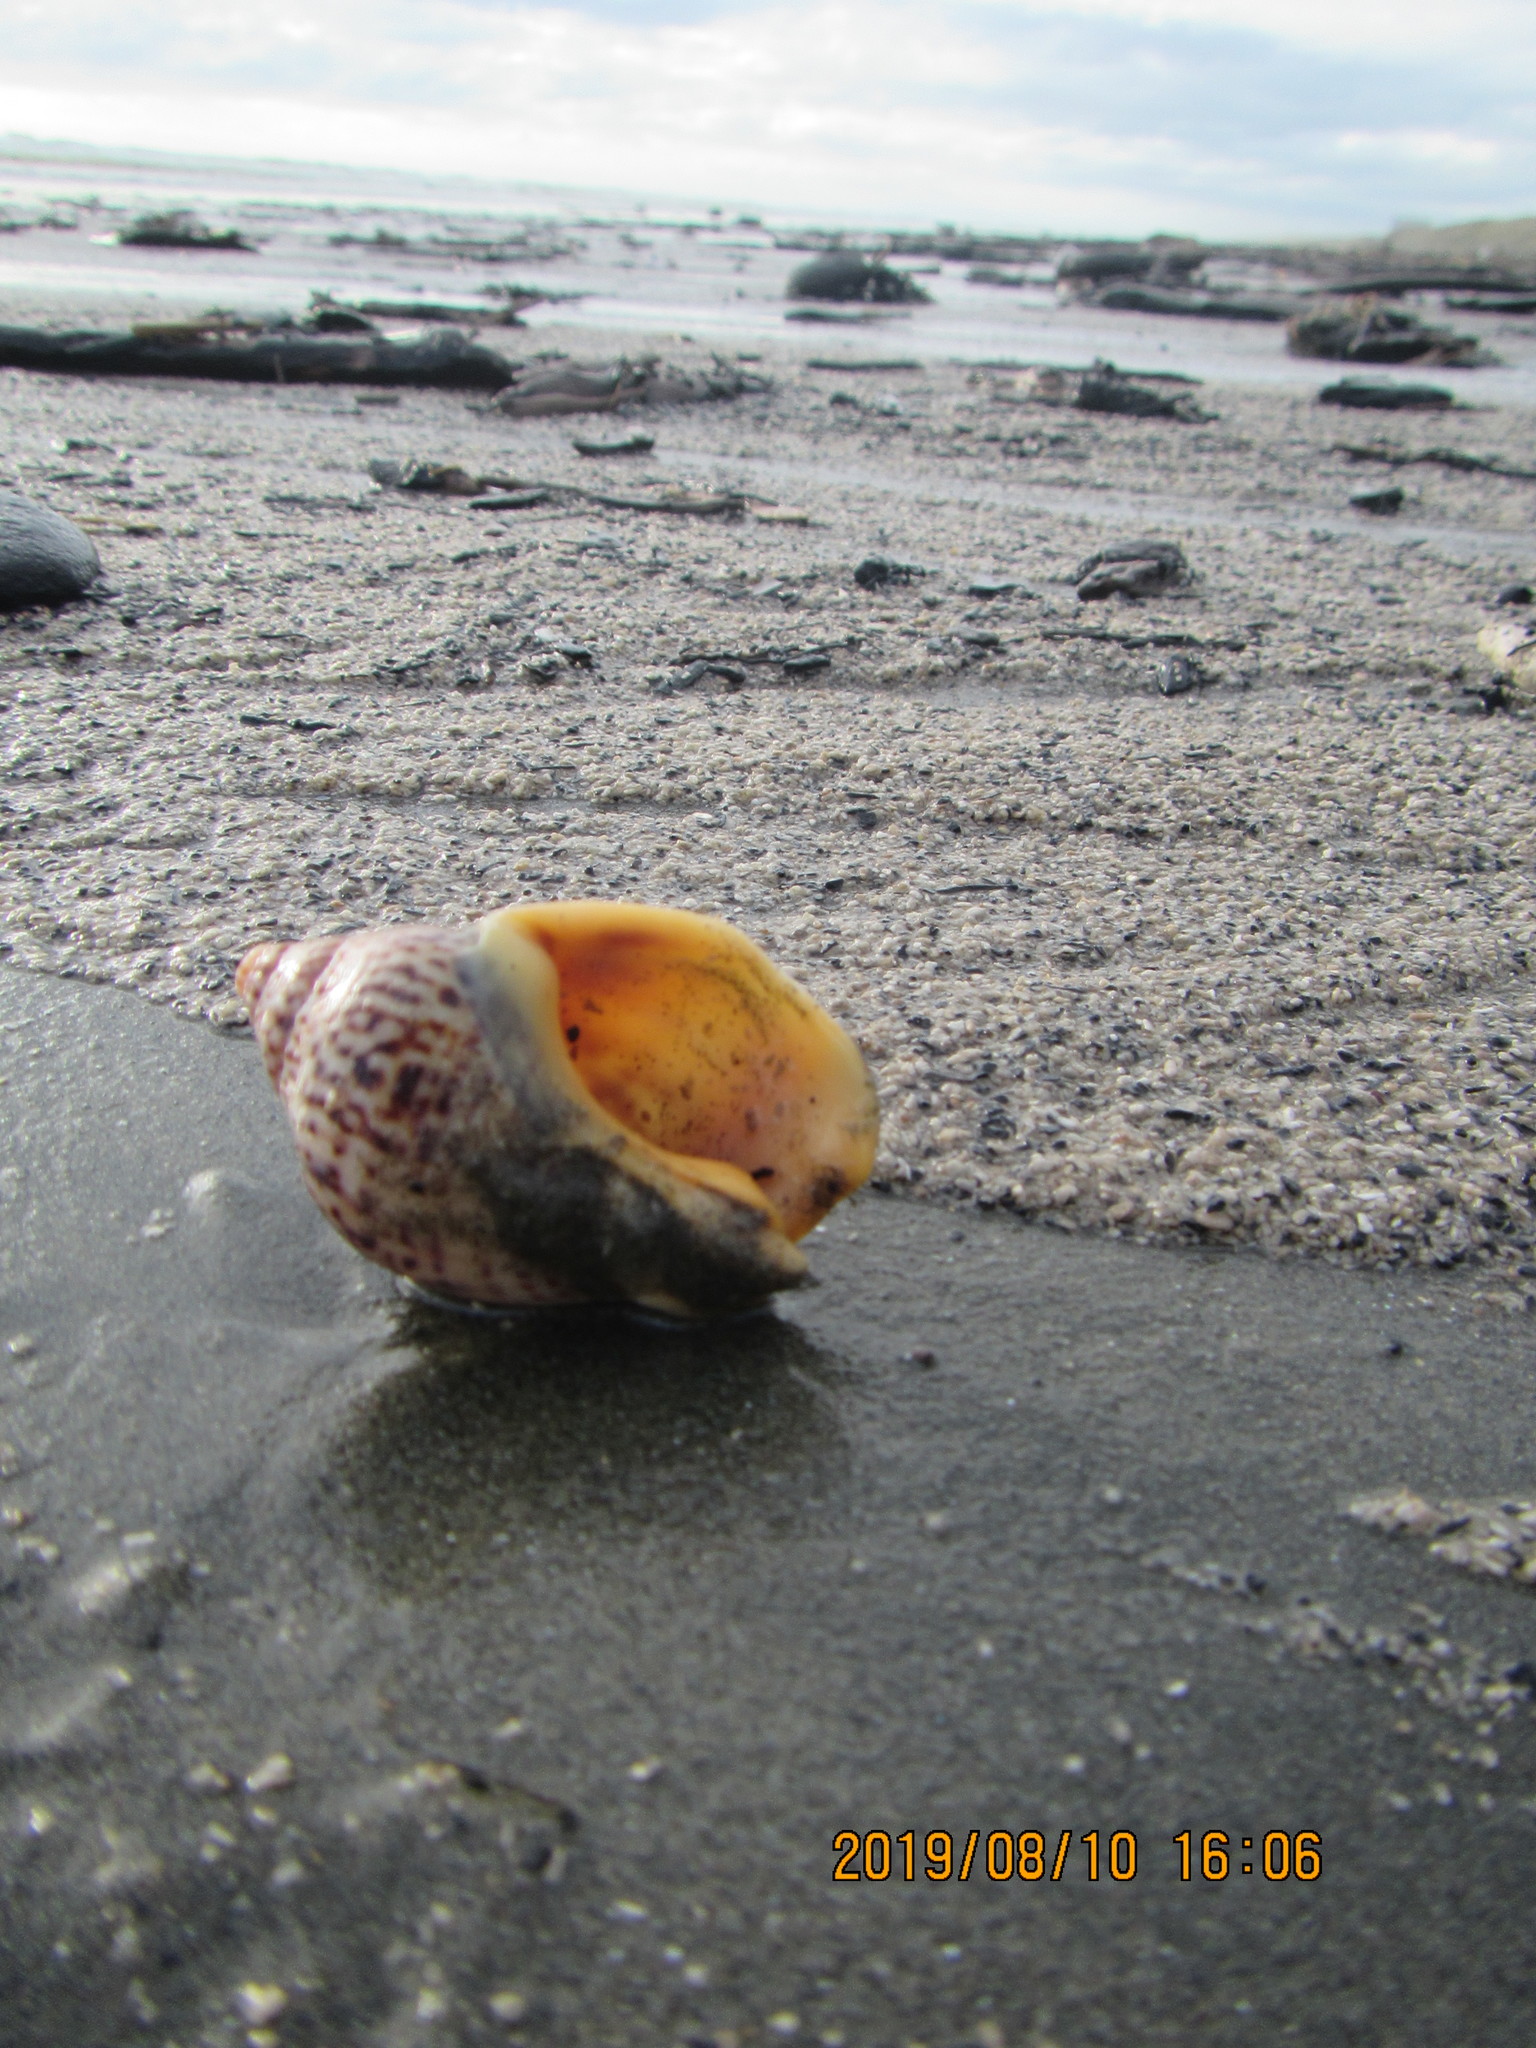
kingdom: Animalia
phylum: Mollusca
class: Gastropoda
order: Neogastropoda
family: Cominellidae
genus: Cominella
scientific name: Cominella adspersa
